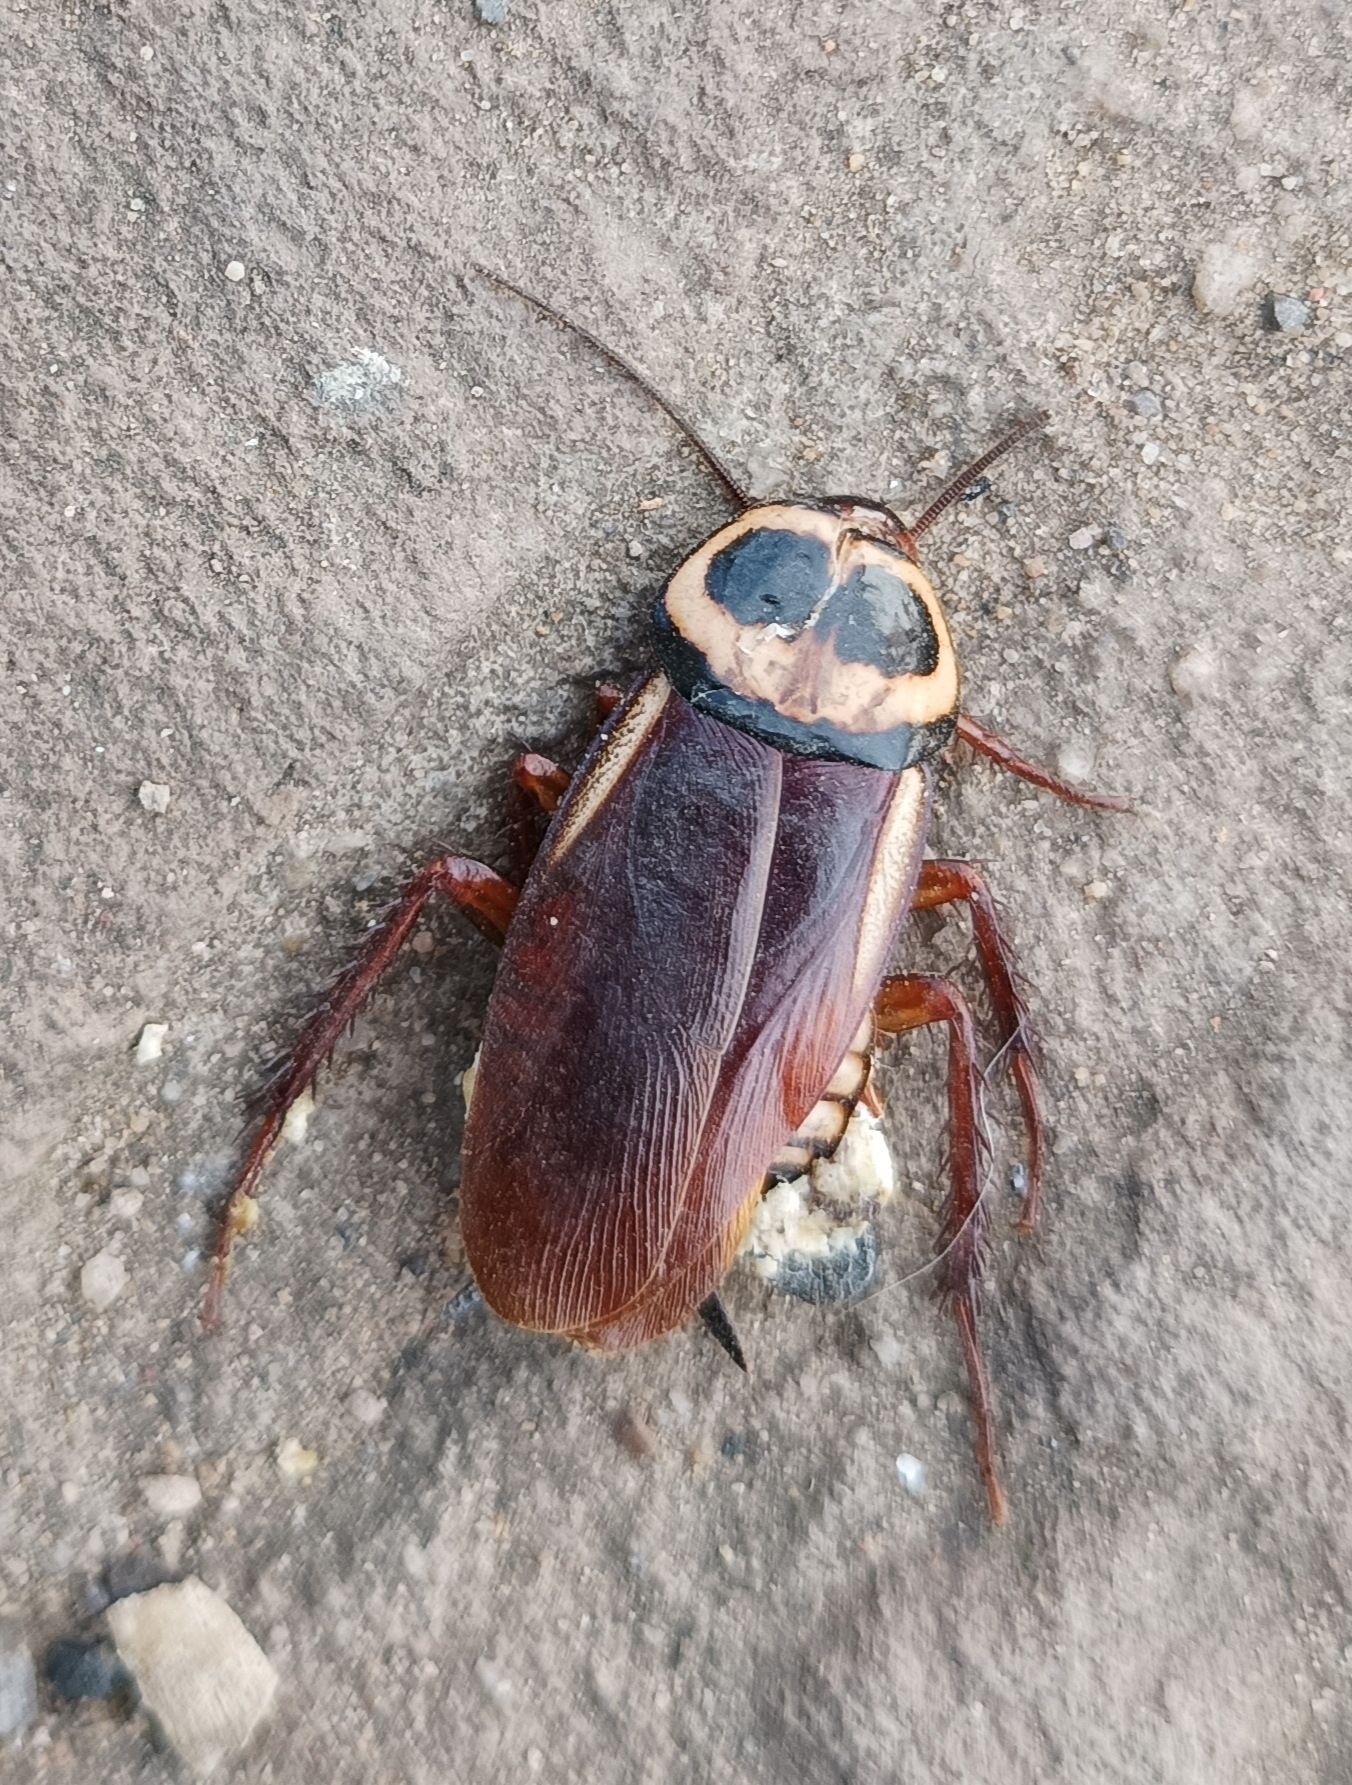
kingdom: Animalia
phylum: Arthropoda
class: Insecta
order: Blattodea
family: Blattidae
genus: Periplaneta
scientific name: Periplaneta australasiae
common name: Australian cockroach
